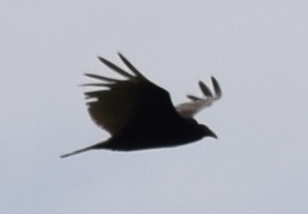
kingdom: Animalia
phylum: Chordata
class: Aves
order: Accipitriformes
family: Cathartidae
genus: Cathartes
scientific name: Cathartes aura
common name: Turkey vulture
